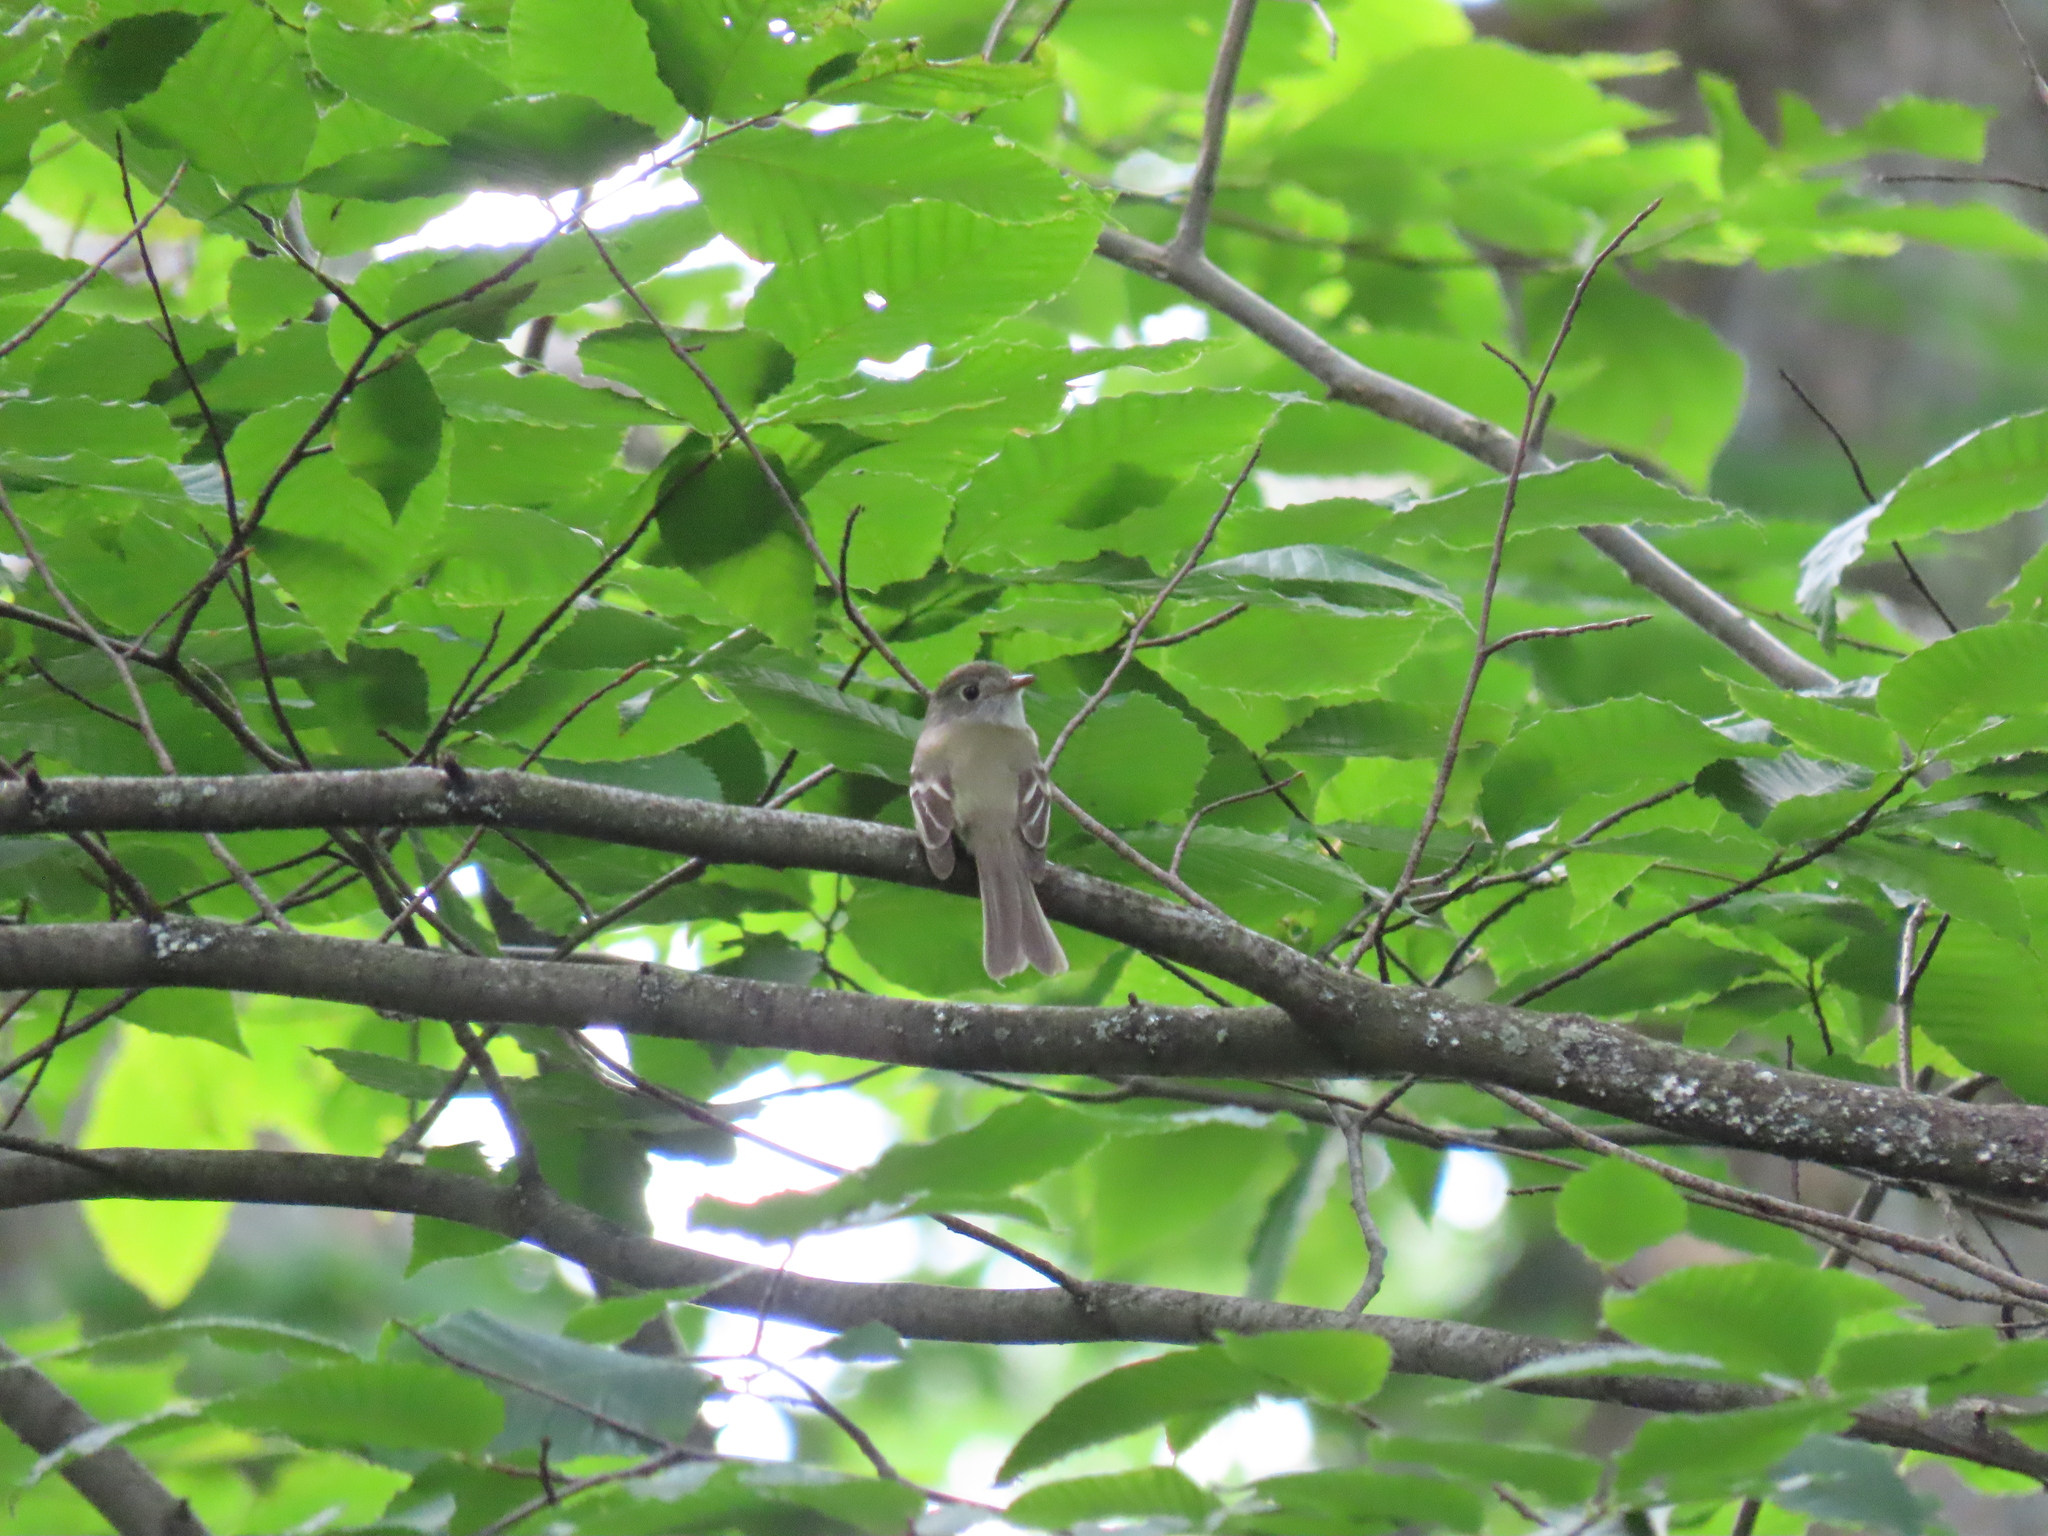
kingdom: Animalia
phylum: Chordata
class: Aves
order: Passeriformes
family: Tyrannidae
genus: Empidonax
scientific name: Empidonax minimus
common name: Least flycatcher
